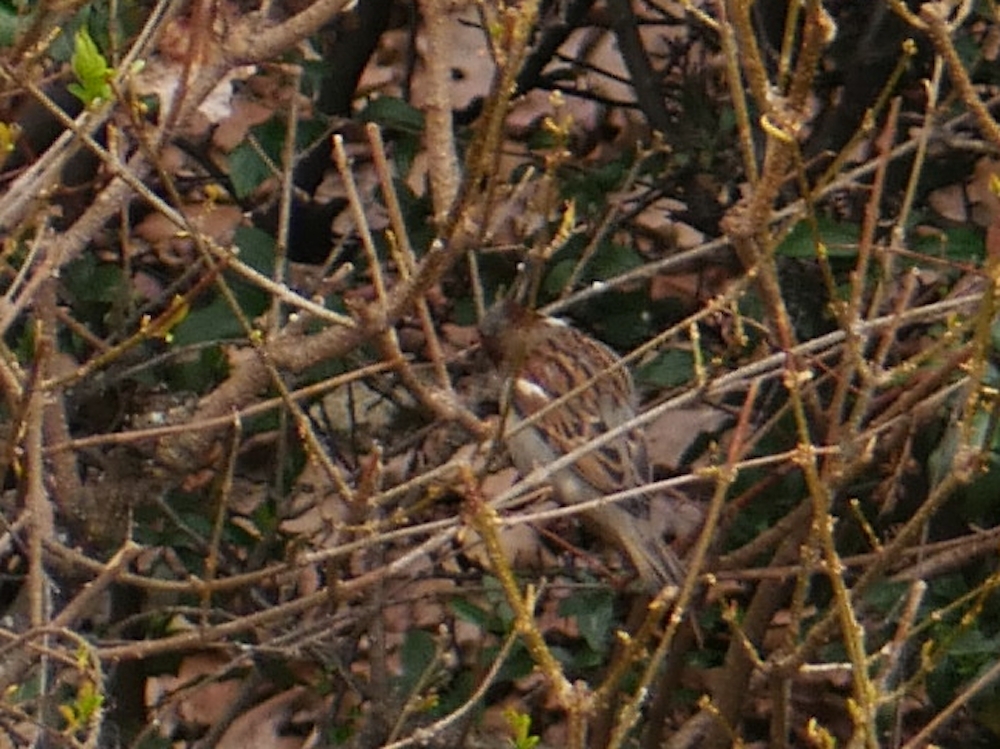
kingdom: Animalia
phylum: Chordata
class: Aves
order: Passeriformes
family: Passeridae
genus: Passer
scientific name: Passer domesticus
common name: House sparrow
